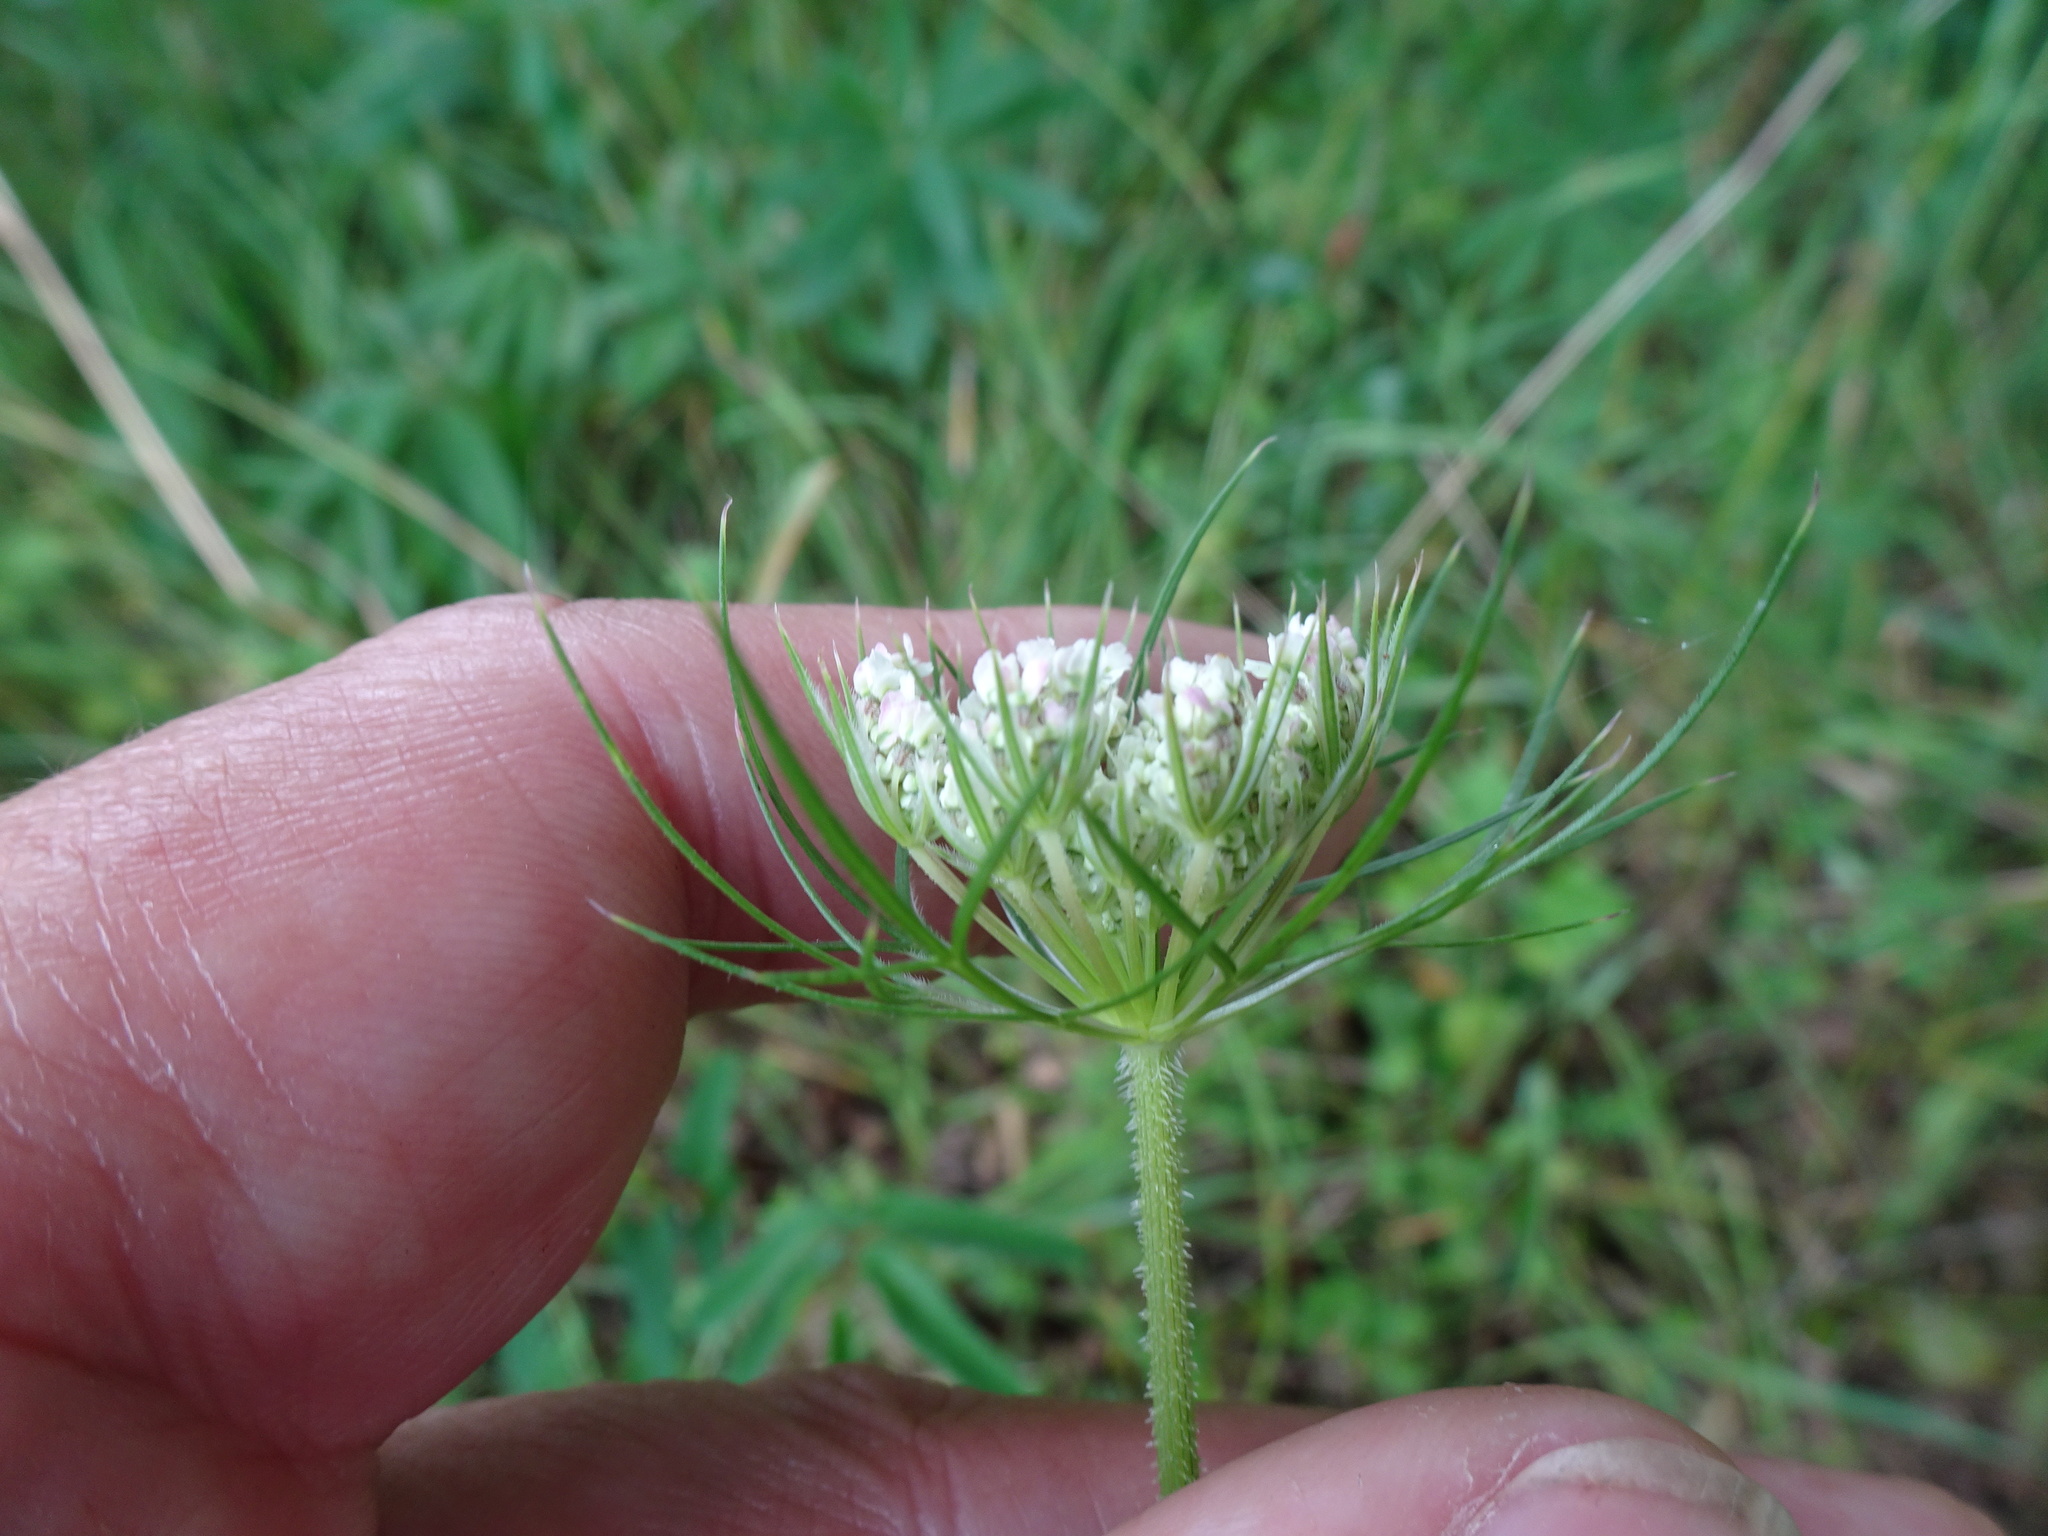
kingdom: Plantae
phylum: Tracheophyta
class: Magnoliopsida
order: Apiales
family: Apiaceae
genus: Daucus
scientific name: Daucus carota
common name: Wild carrot
